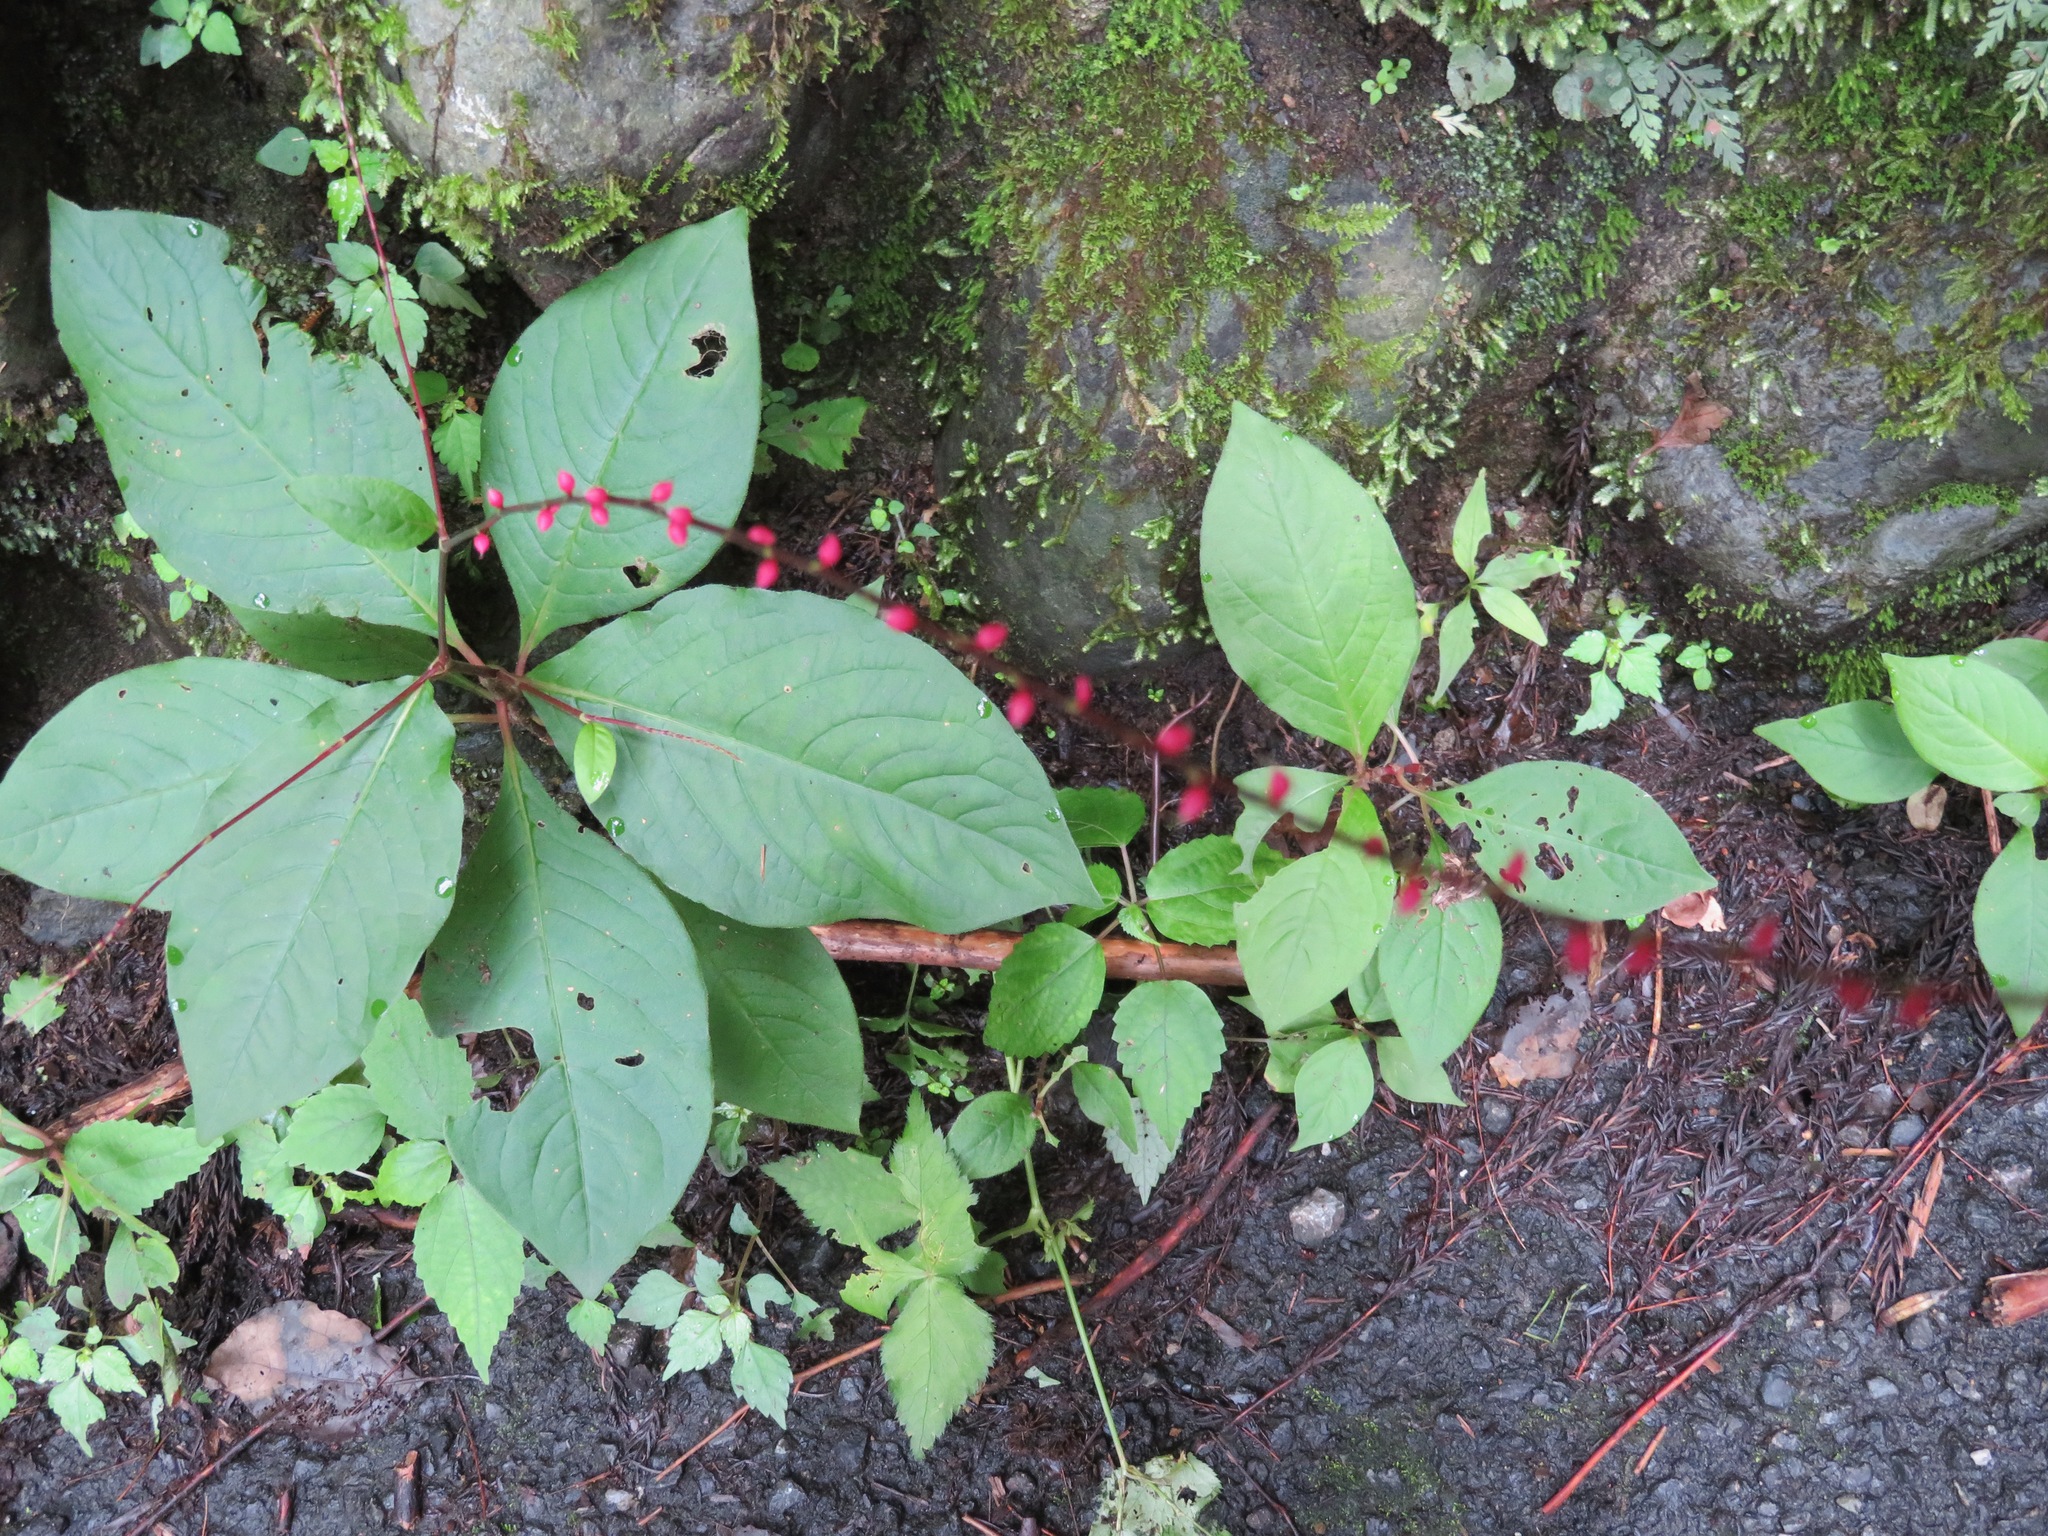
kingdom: Plantae
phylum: Tracheophyta
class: Magnoliopsida
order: Caryophyllales
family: Polygonaceae
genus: Persicaria
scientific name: Persicaria filiformis
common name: Asian jumpseed
